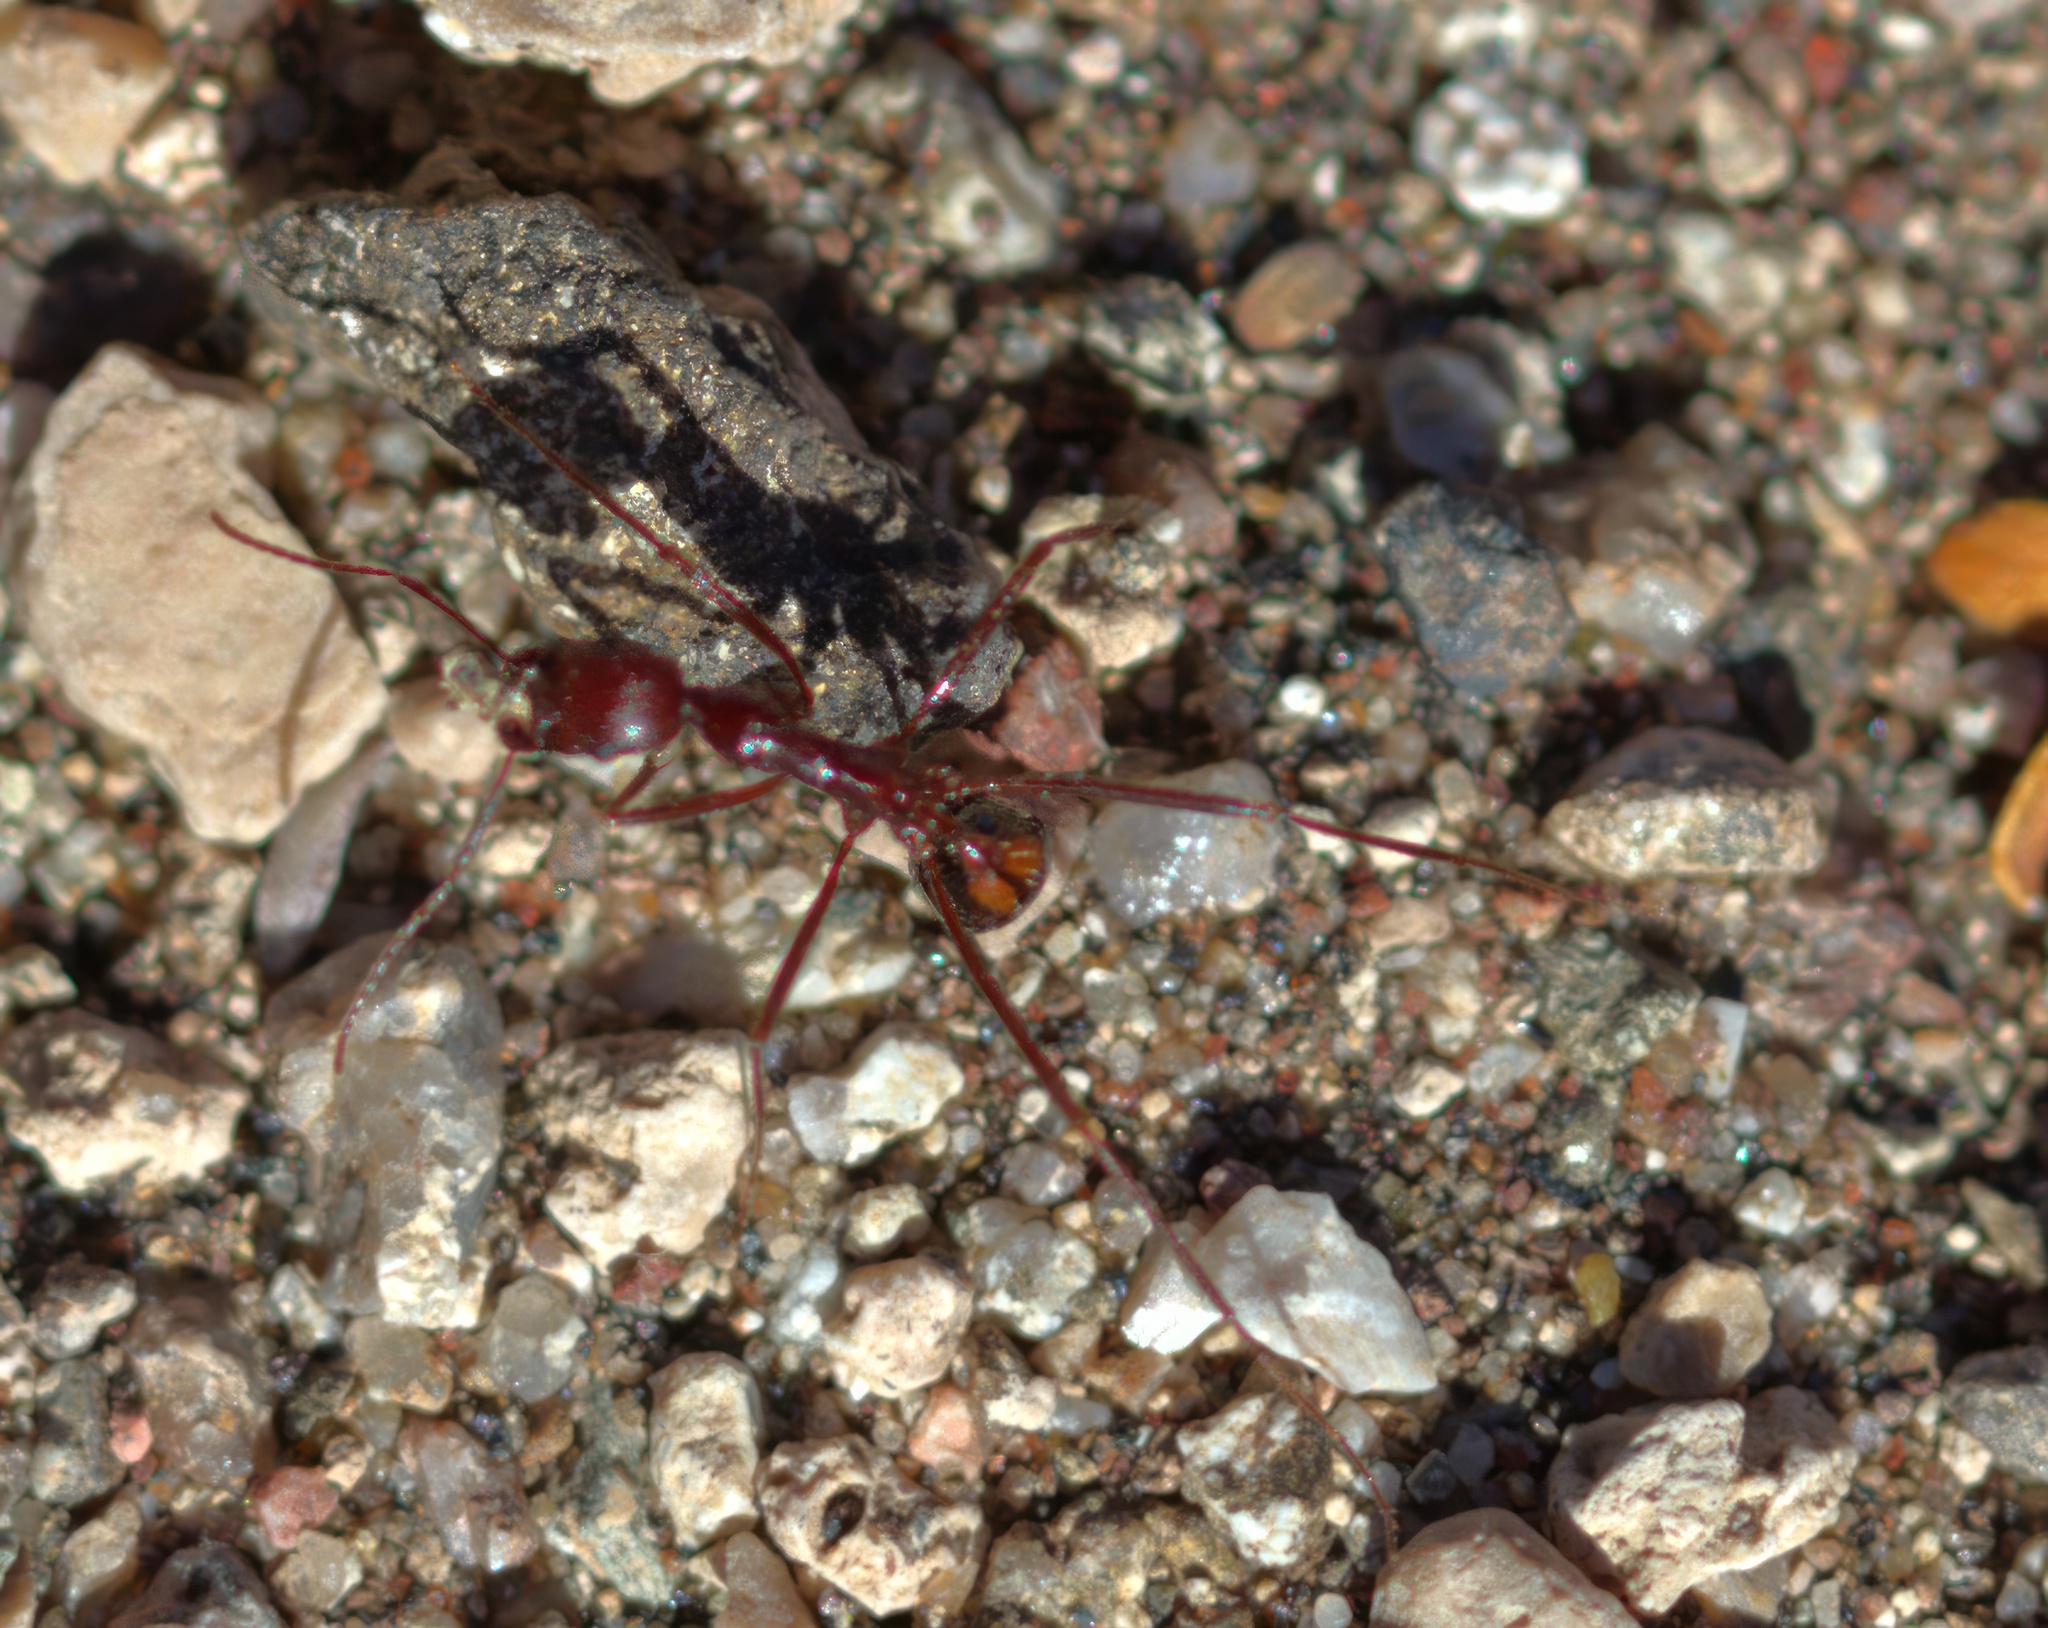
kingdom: Animalia
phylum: Arthropoda
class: Insecta
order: Hymenoptera
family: Formicidae
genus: Novomessor
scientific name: Novomessor cockerelli
